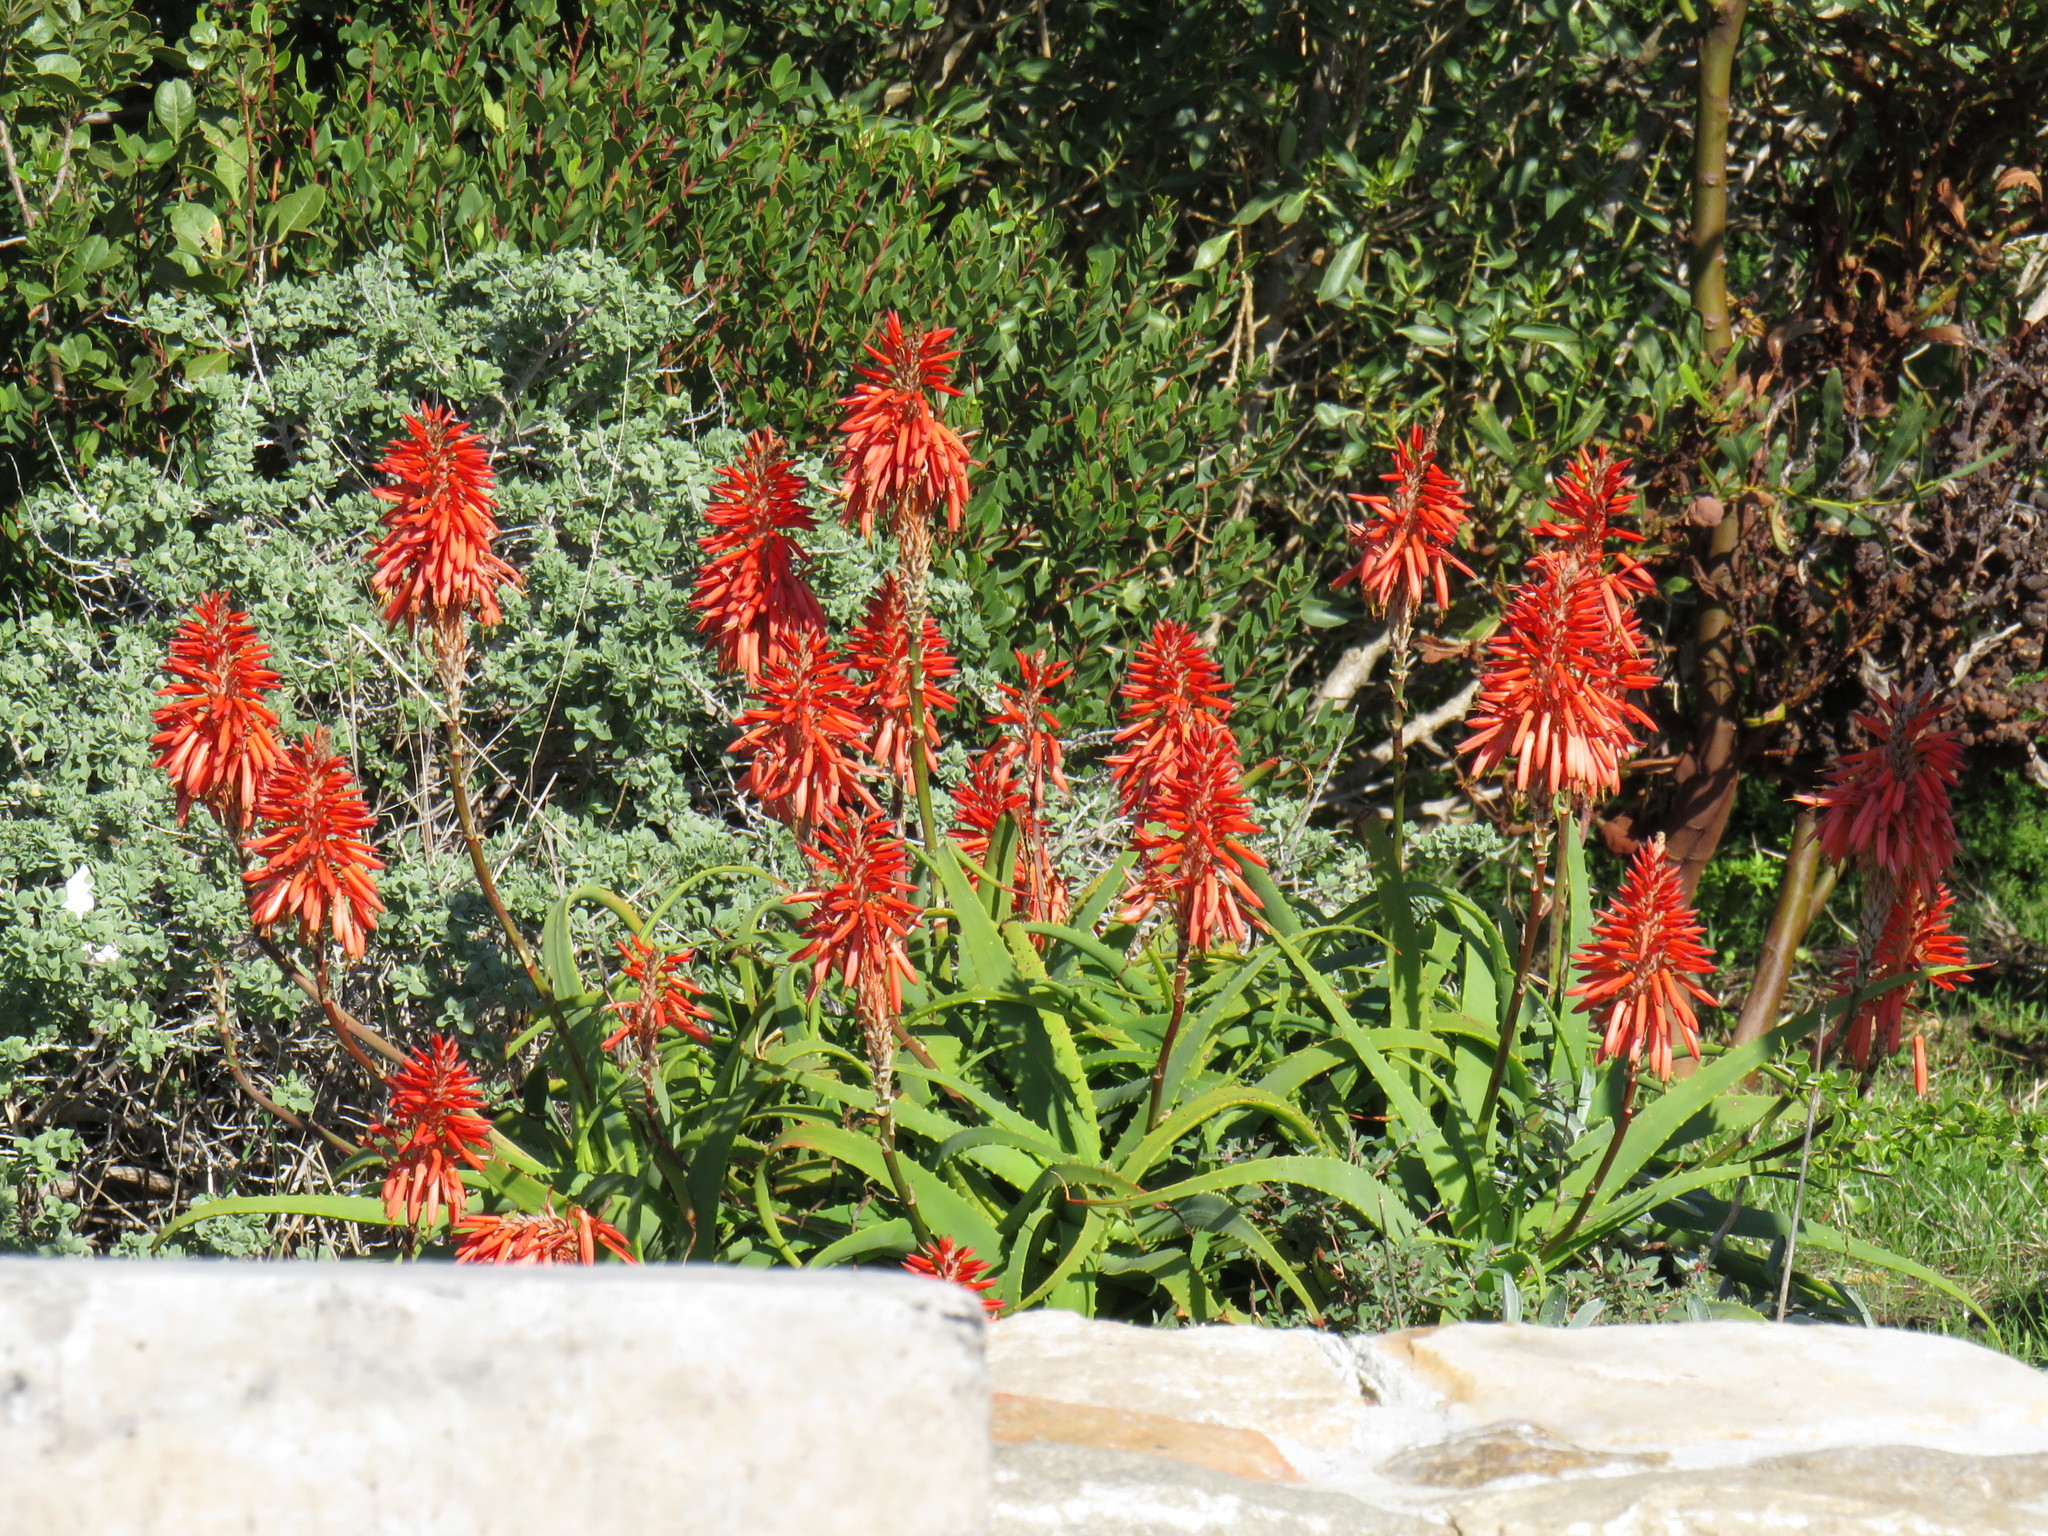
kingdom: Plantae
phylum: Tracheophyta
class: Liliopsida
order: Asparagales
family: Asphodelaceae
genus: Aloe
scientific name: Aloe arborescens
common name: Candelabra aloe
